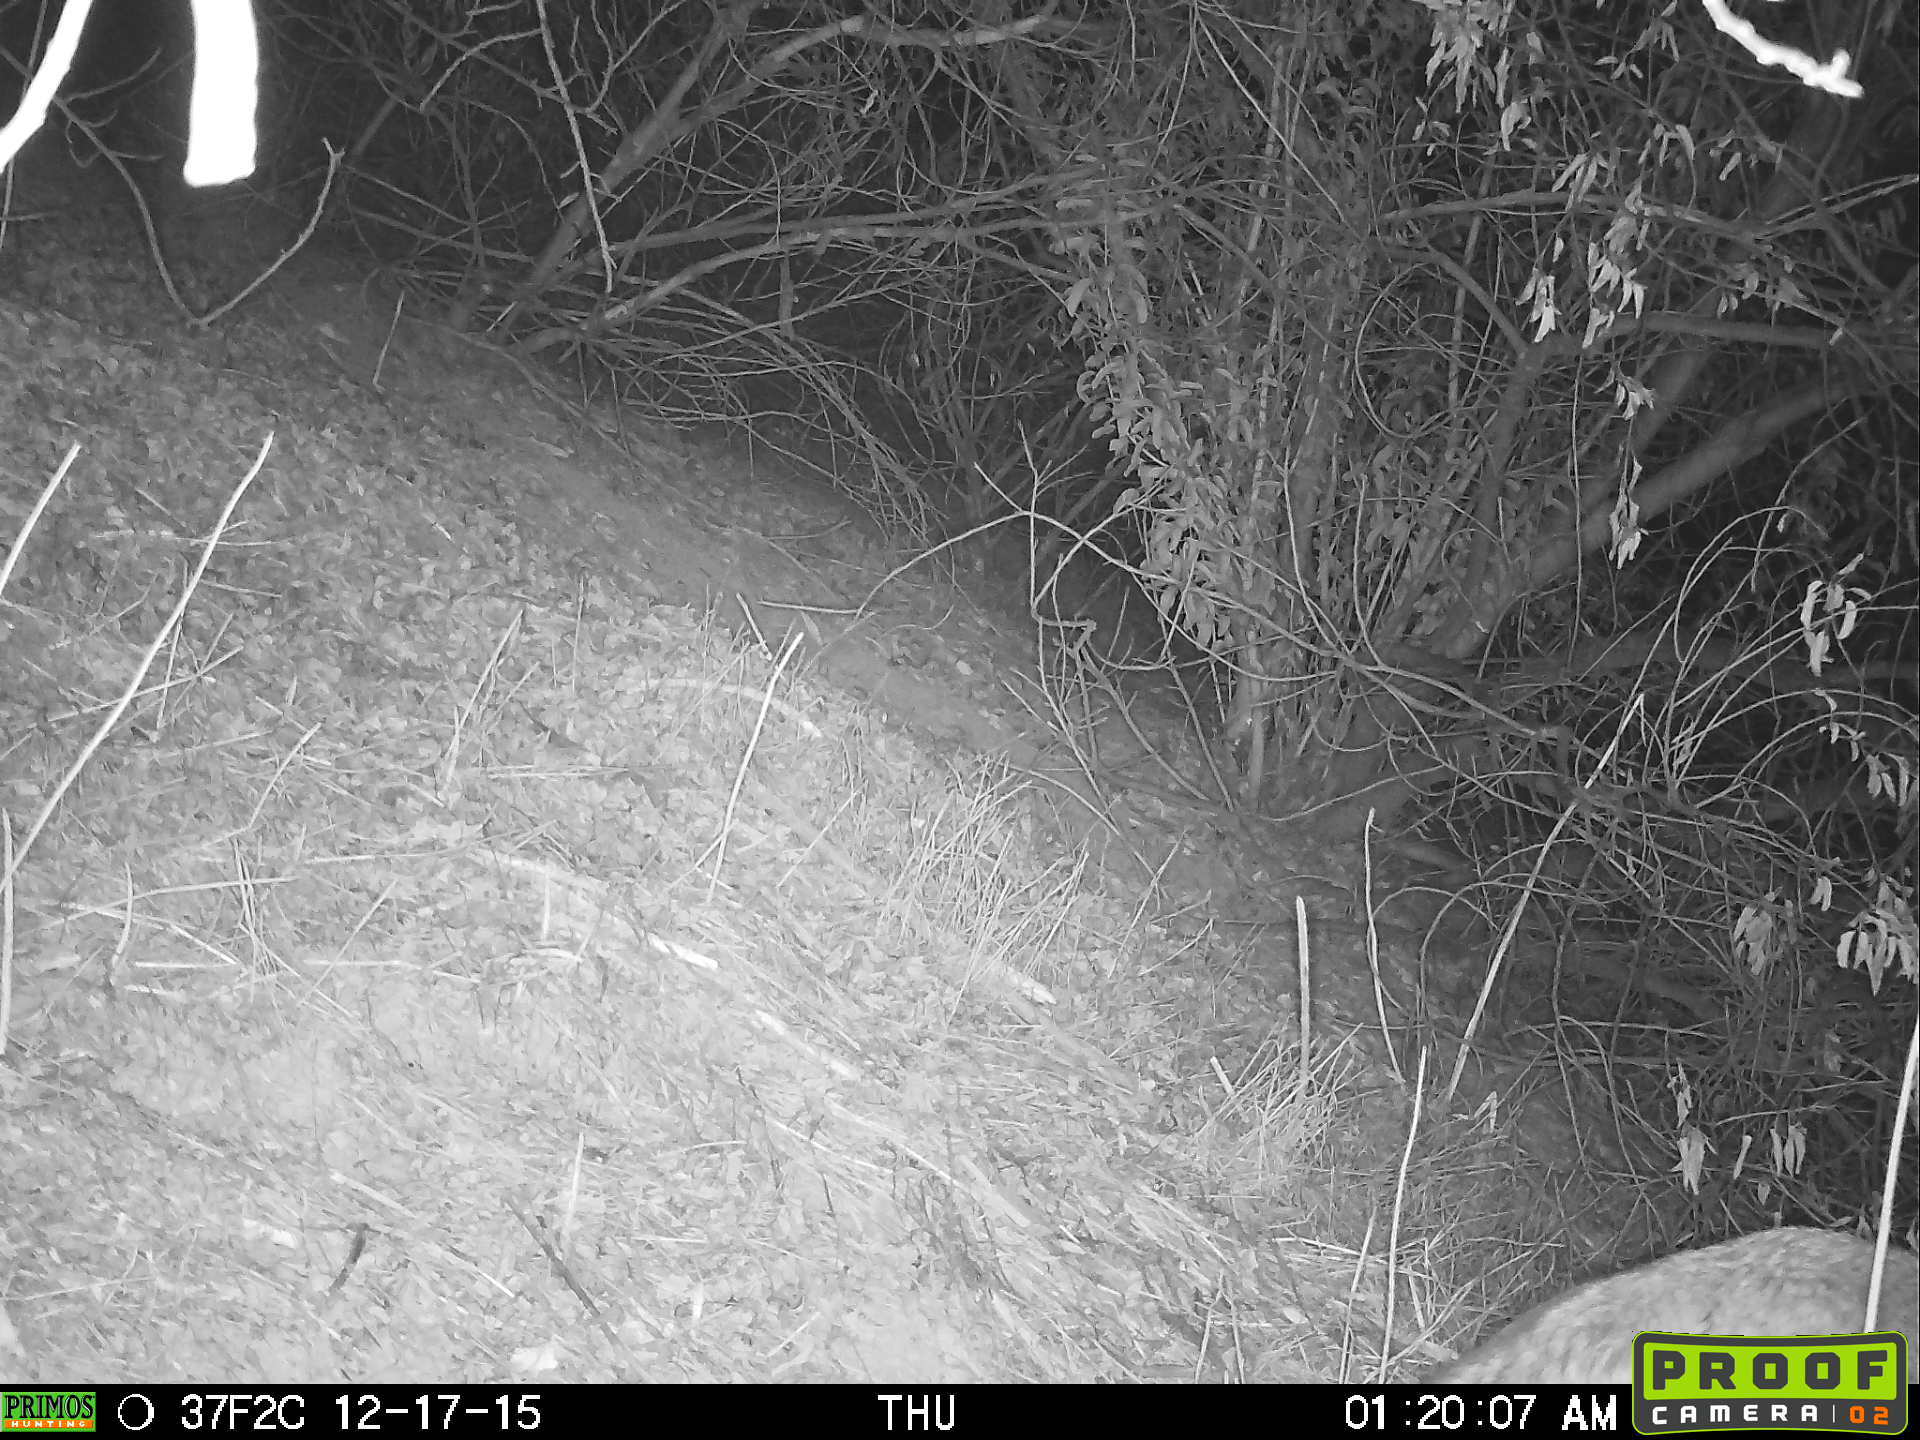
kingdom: Animalia
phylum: Chordata
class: Mammalia
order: Carnivora
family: Canidae
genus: Canis
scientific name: Canis latrans
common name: Coyote
